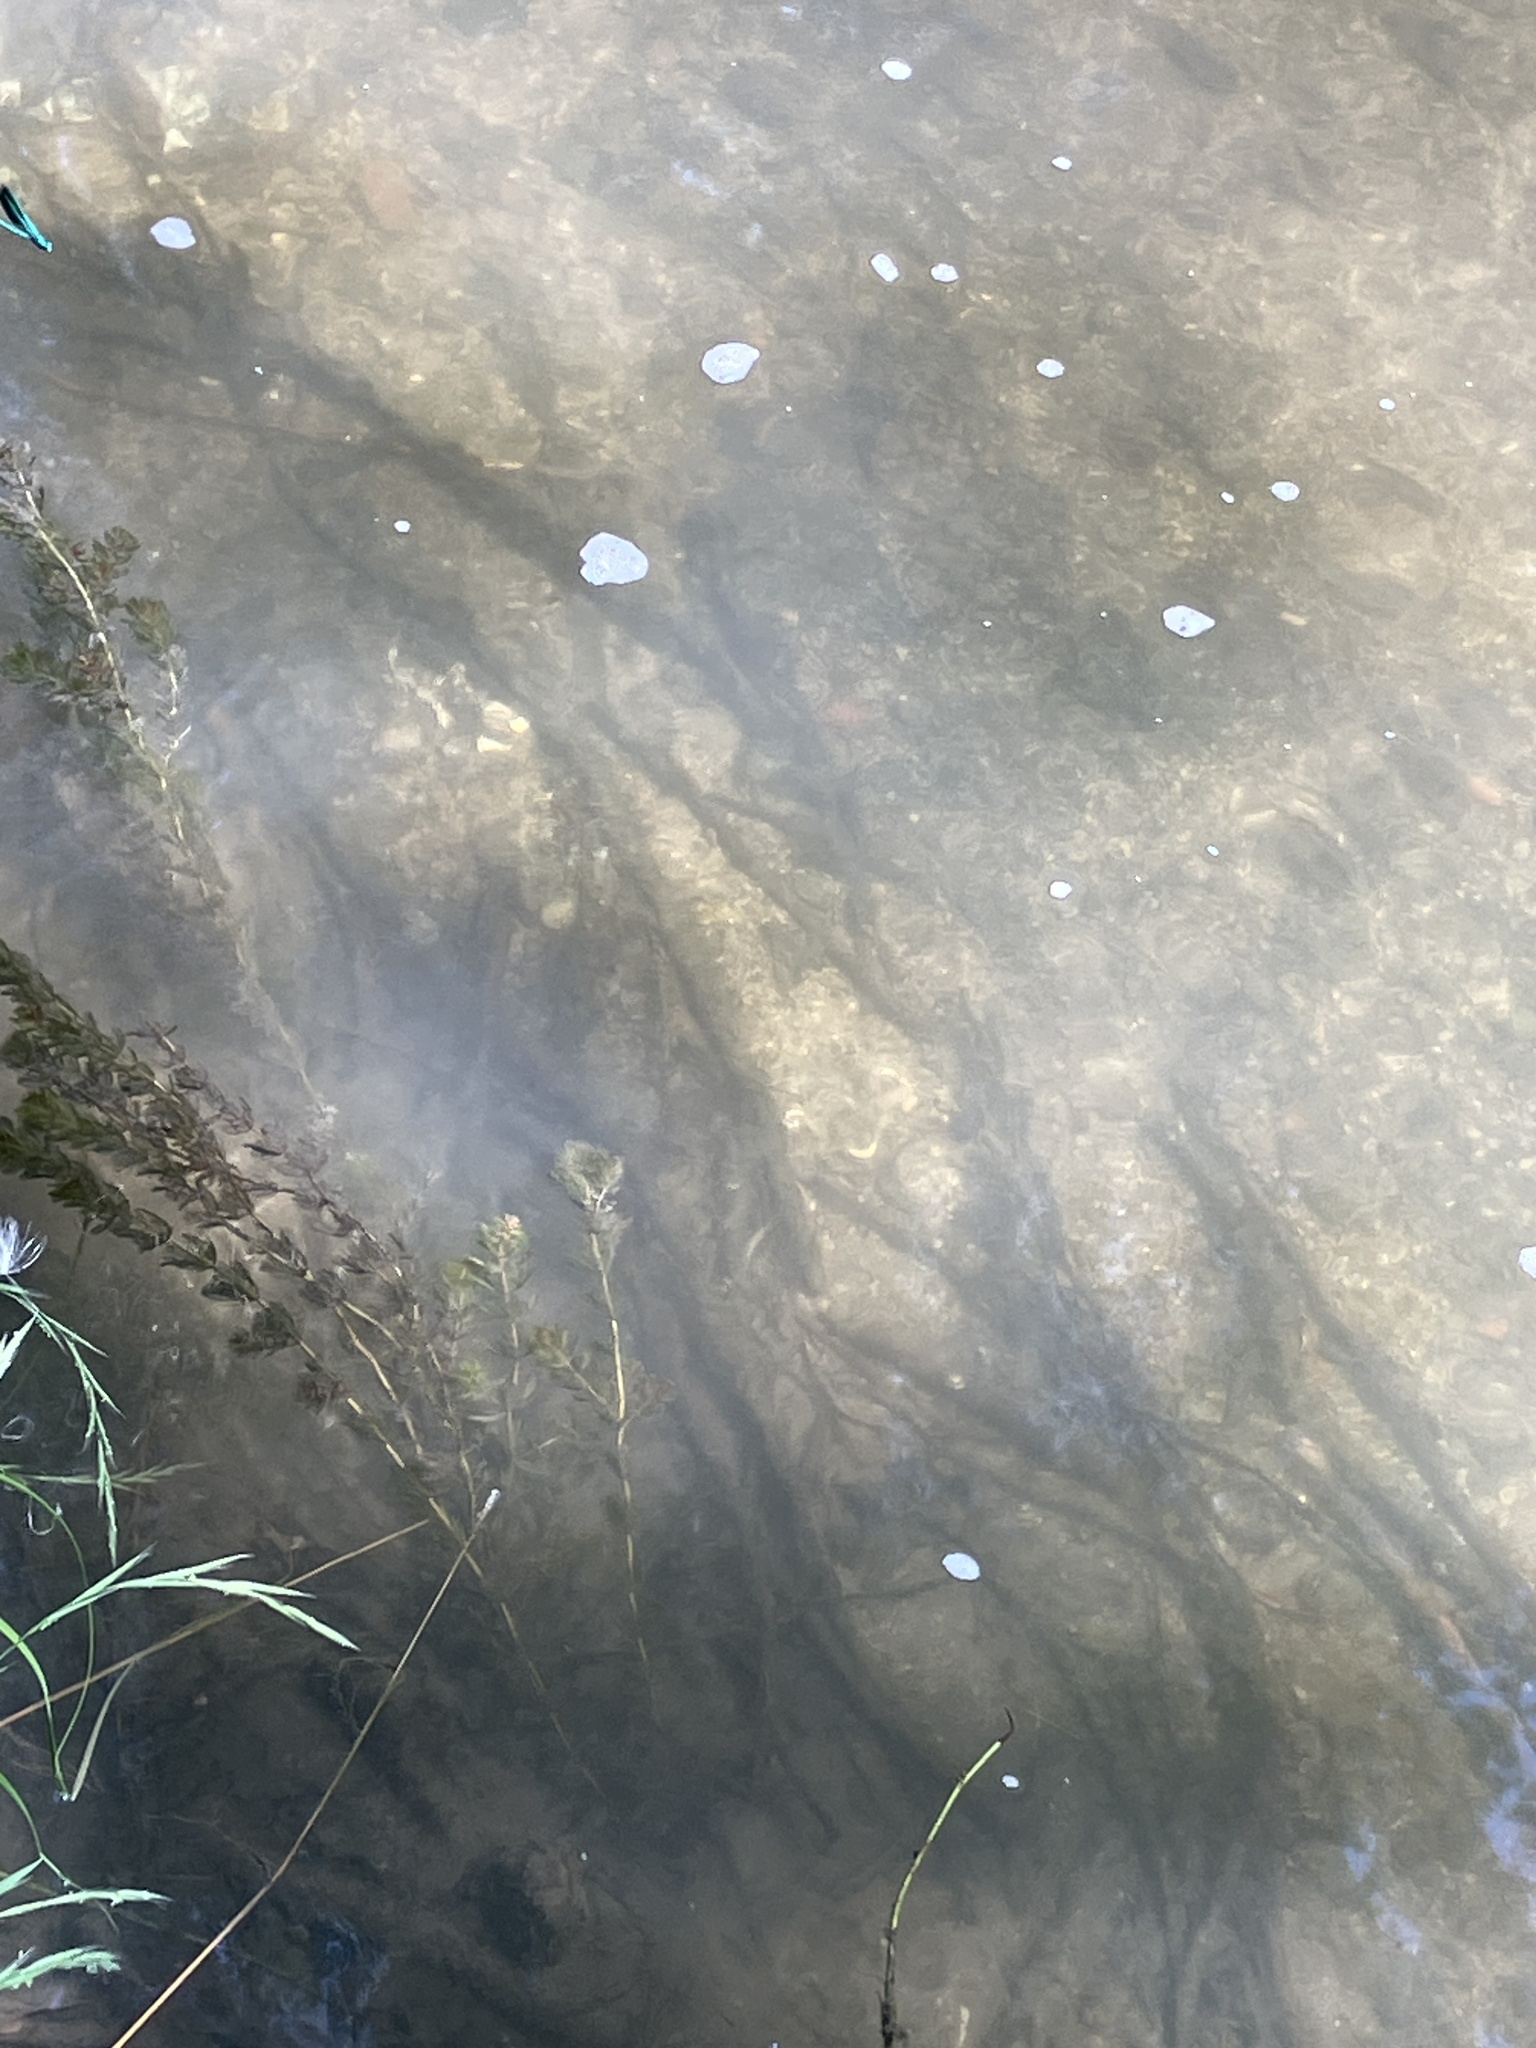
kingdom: Plantae
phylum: Tracheophyta
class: Magnoliopsida
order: Saxifragales
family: Haloragaceae
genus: Myriophyllum
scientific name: Myriophyllum spicatum
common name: Spiked water-milfoil
